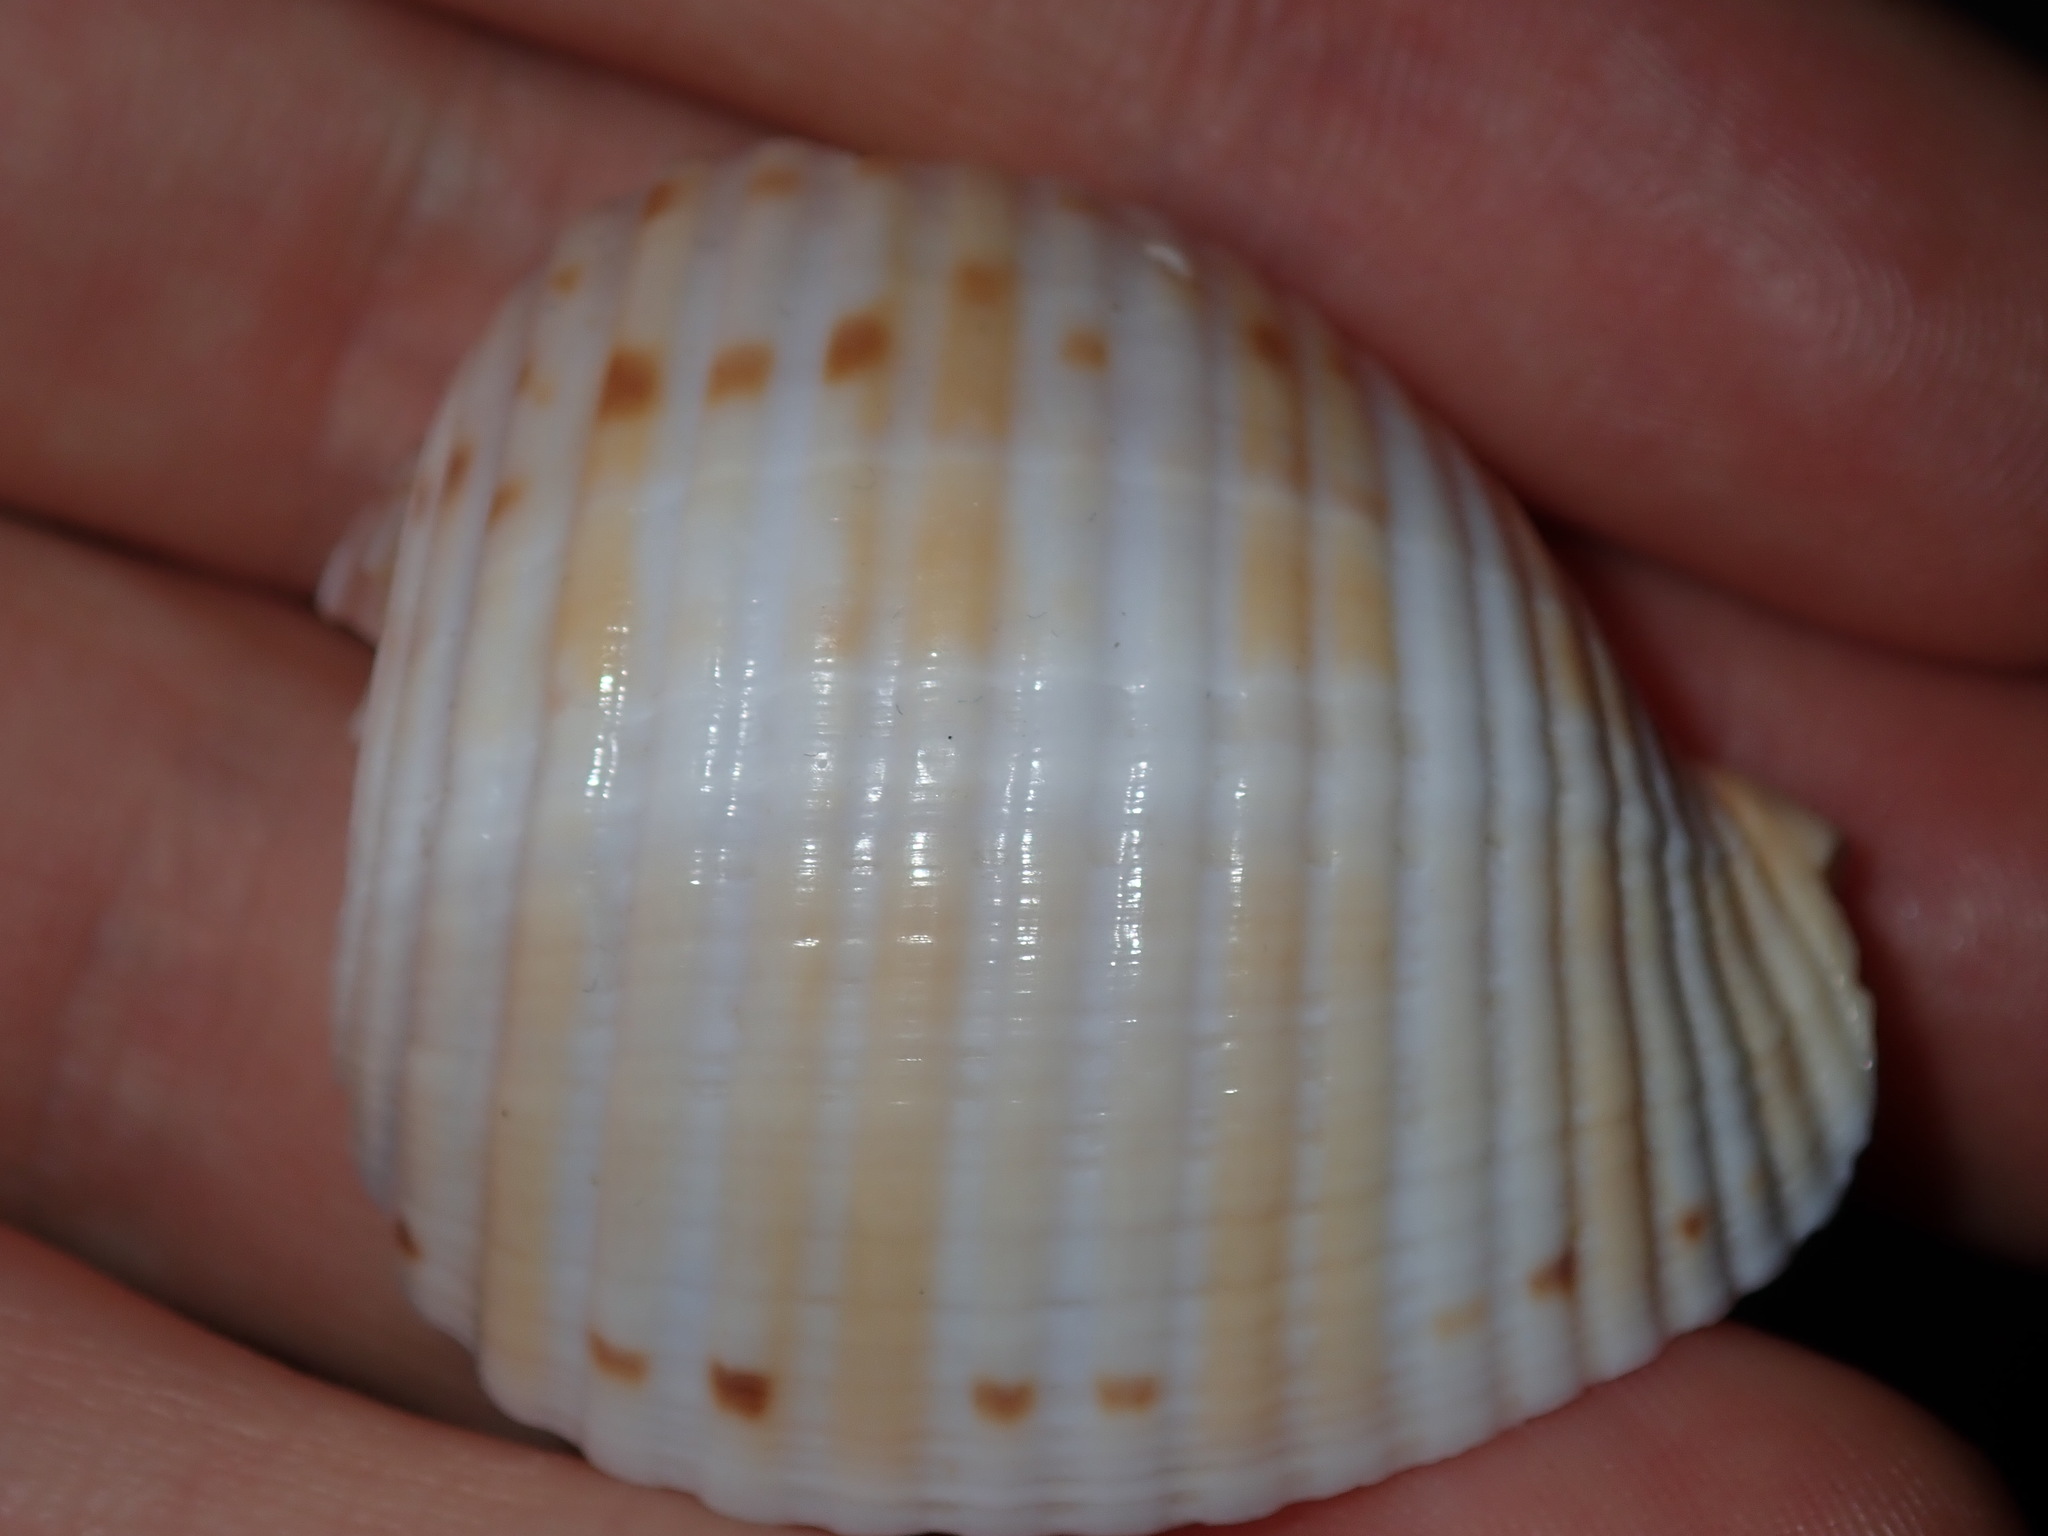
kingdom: Animalia
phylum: Mollusca
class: Gastropoda
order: Littorinimorpha
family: Tonnidae
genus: Tonna
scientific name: Tonna tankervillii
